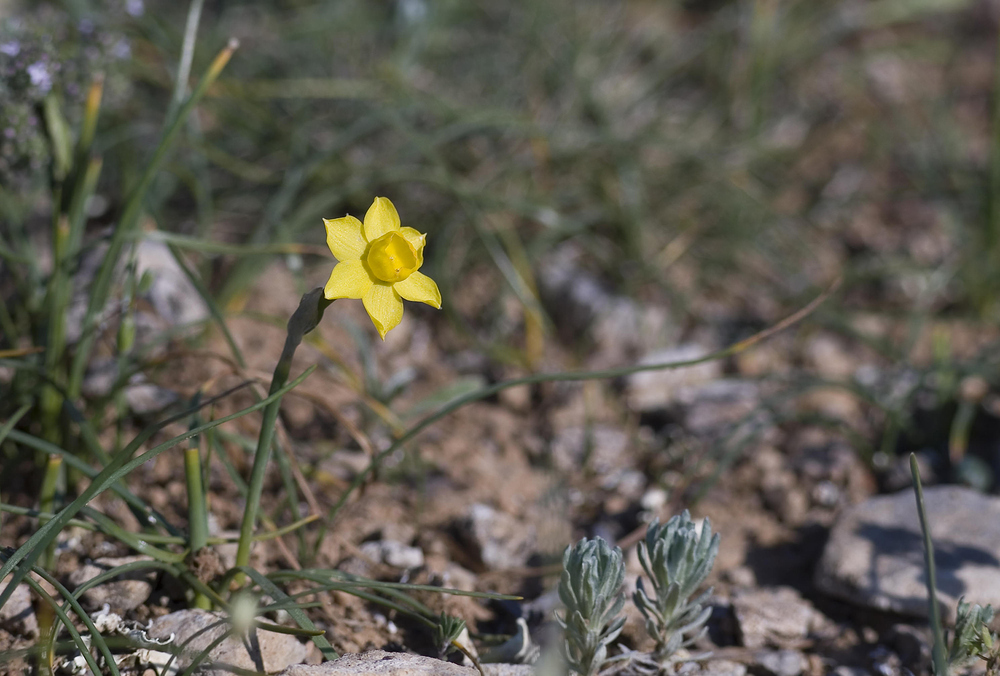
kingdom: Plantae
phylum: Tracheophyta
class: Liliopsida
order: Asparagales
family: Amaryllidaceae
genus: Narcissus
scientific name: Narcissus assoanus
